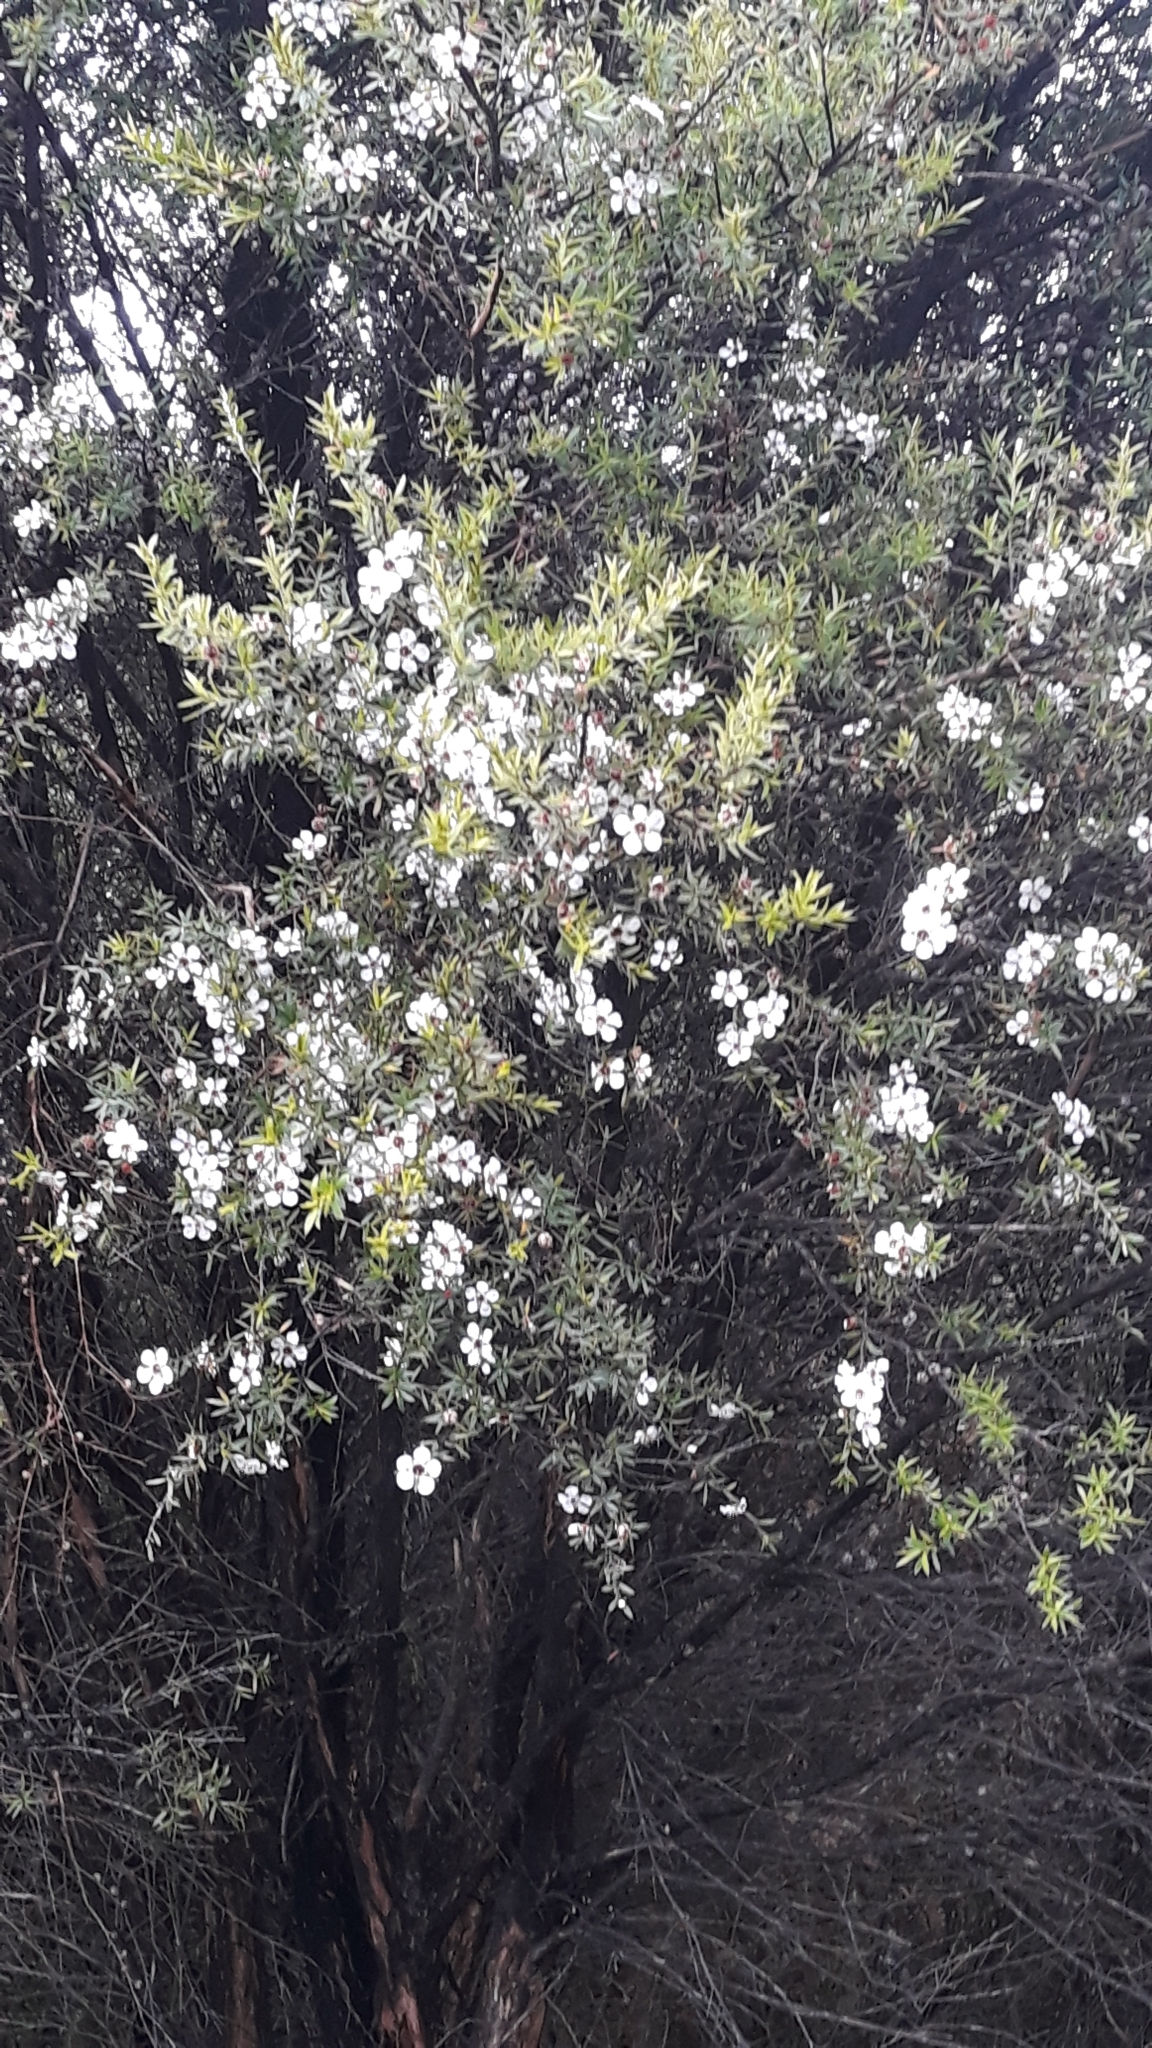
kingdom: Plantae
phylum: Tracheophyta
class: Magnoliopsida
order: Myrtales
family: Myrtaceae
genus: Leptospermum
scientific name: Leptospermum scoparium
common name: Broom tea-tree
